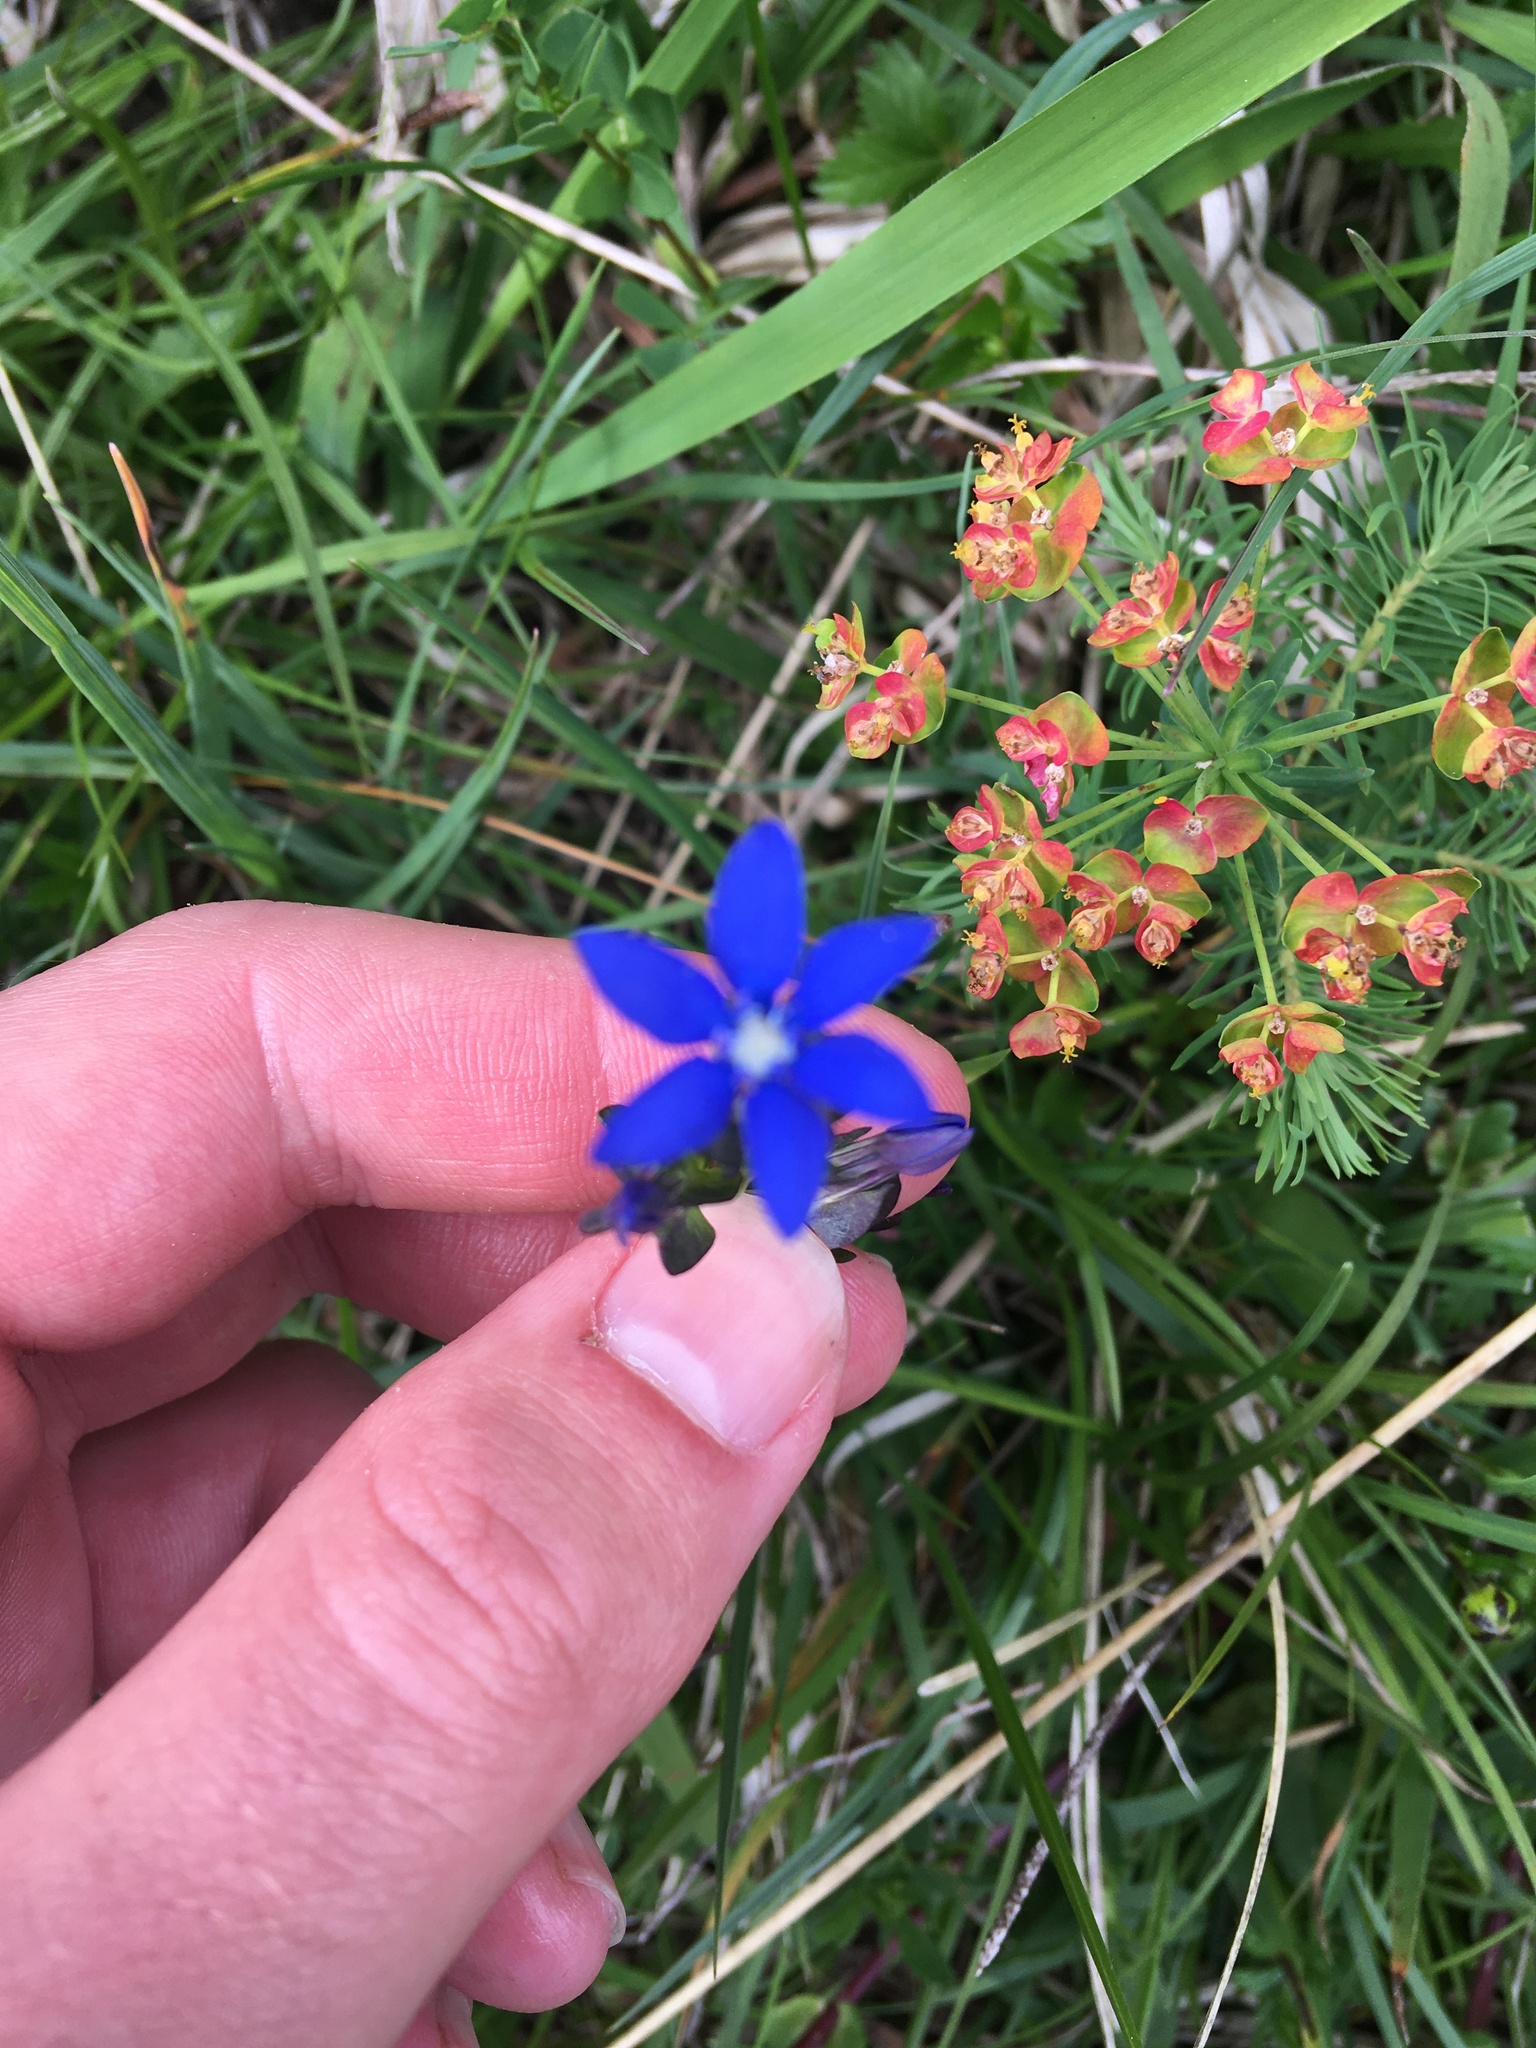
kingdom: Plantae
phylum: Tracheophyta
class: Magnoliopsida
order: Gentianales
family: Gentianaceae
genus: Gentiana
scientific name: Gentiana utriculosa
